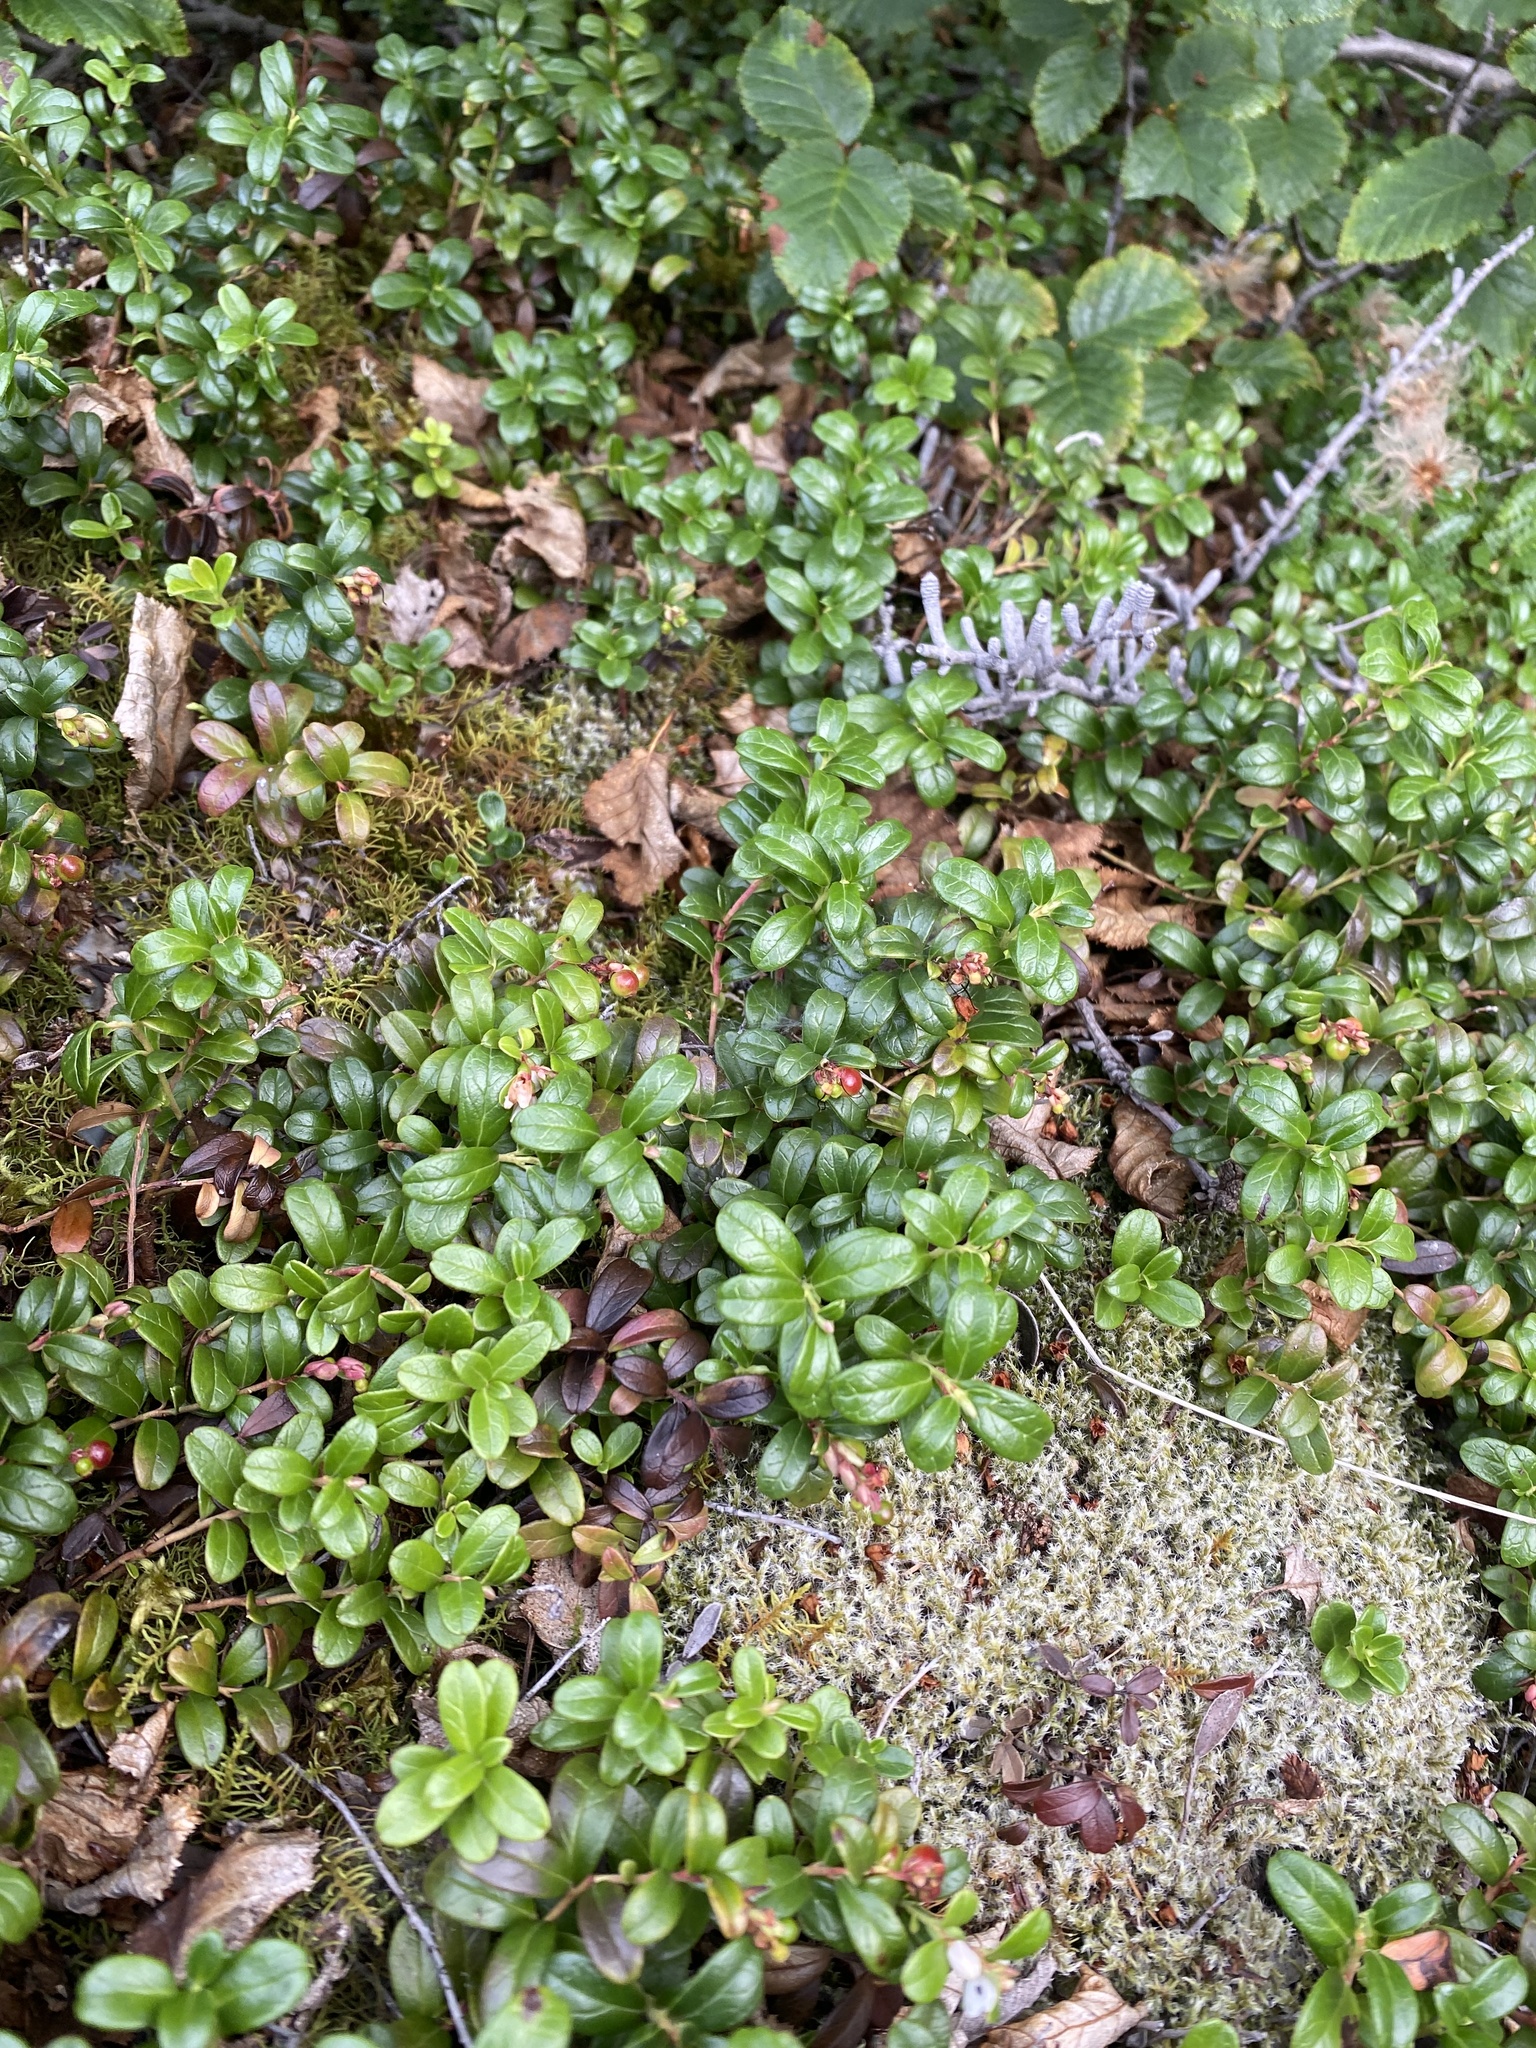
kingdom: Plantae
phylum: Tracheophyta
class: Magnoliopsida
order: Ericales
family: Ericaceae
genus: Vaccinium
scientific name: Vaccinium vitis-idaea
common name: Cowberry
